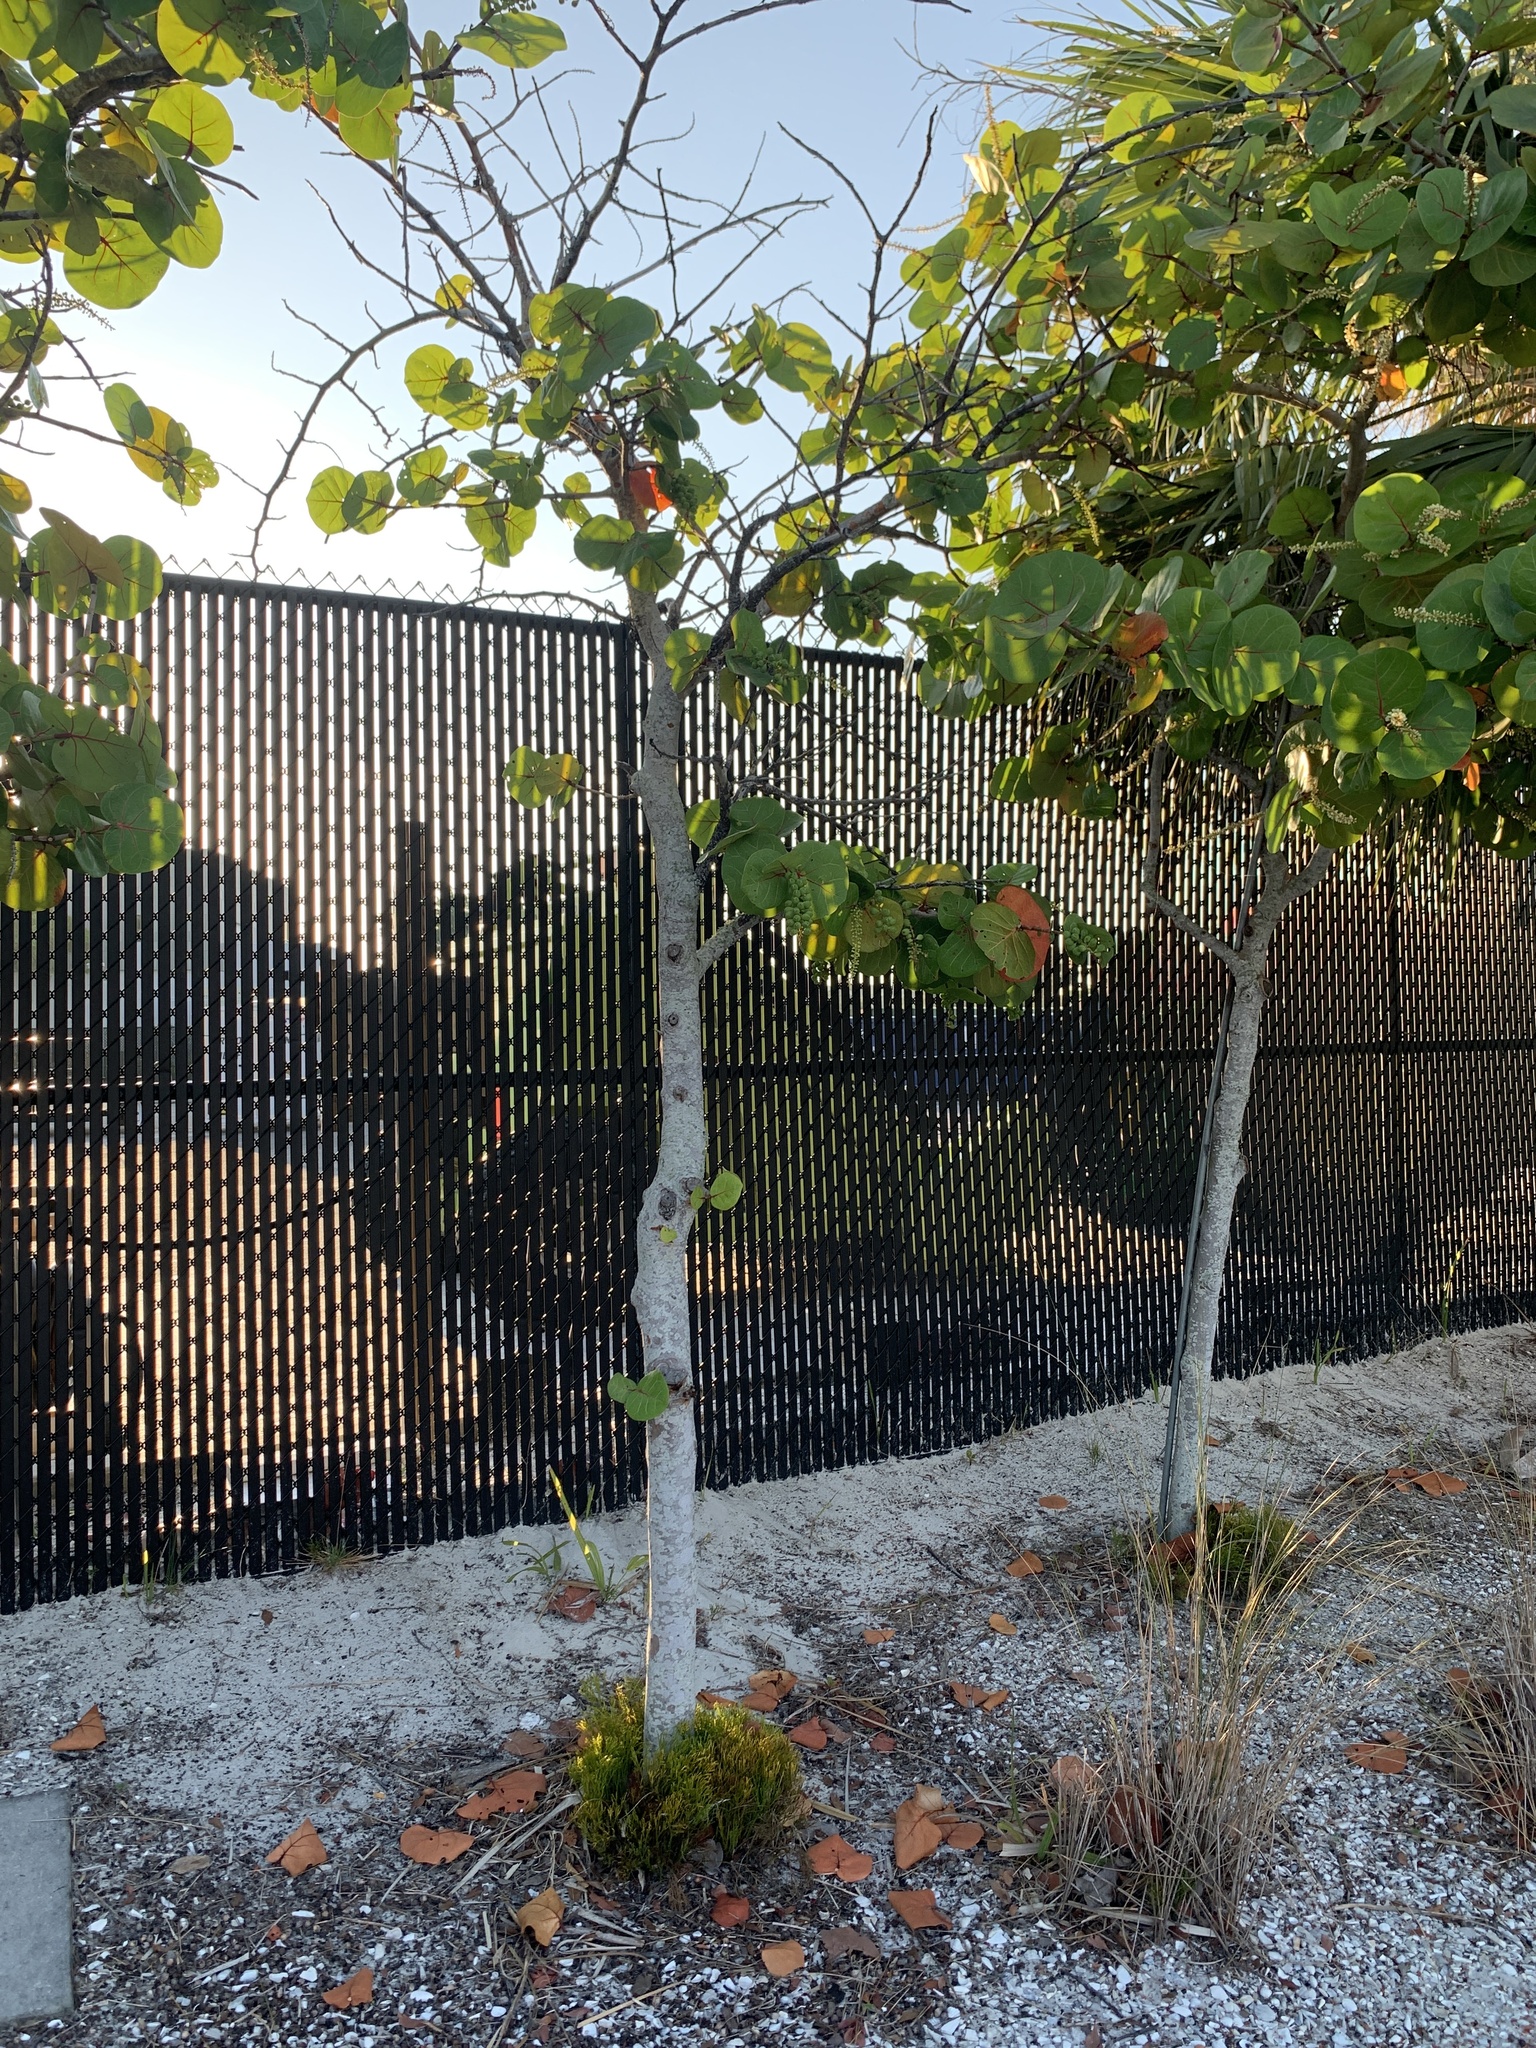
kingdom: Plantae
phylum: Tracheophyta
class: Polypodiopsida
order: Psilotales
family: Psilotaceae
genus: Psilotum
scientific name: Psilotum nudum
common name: Skeleton fork fern
